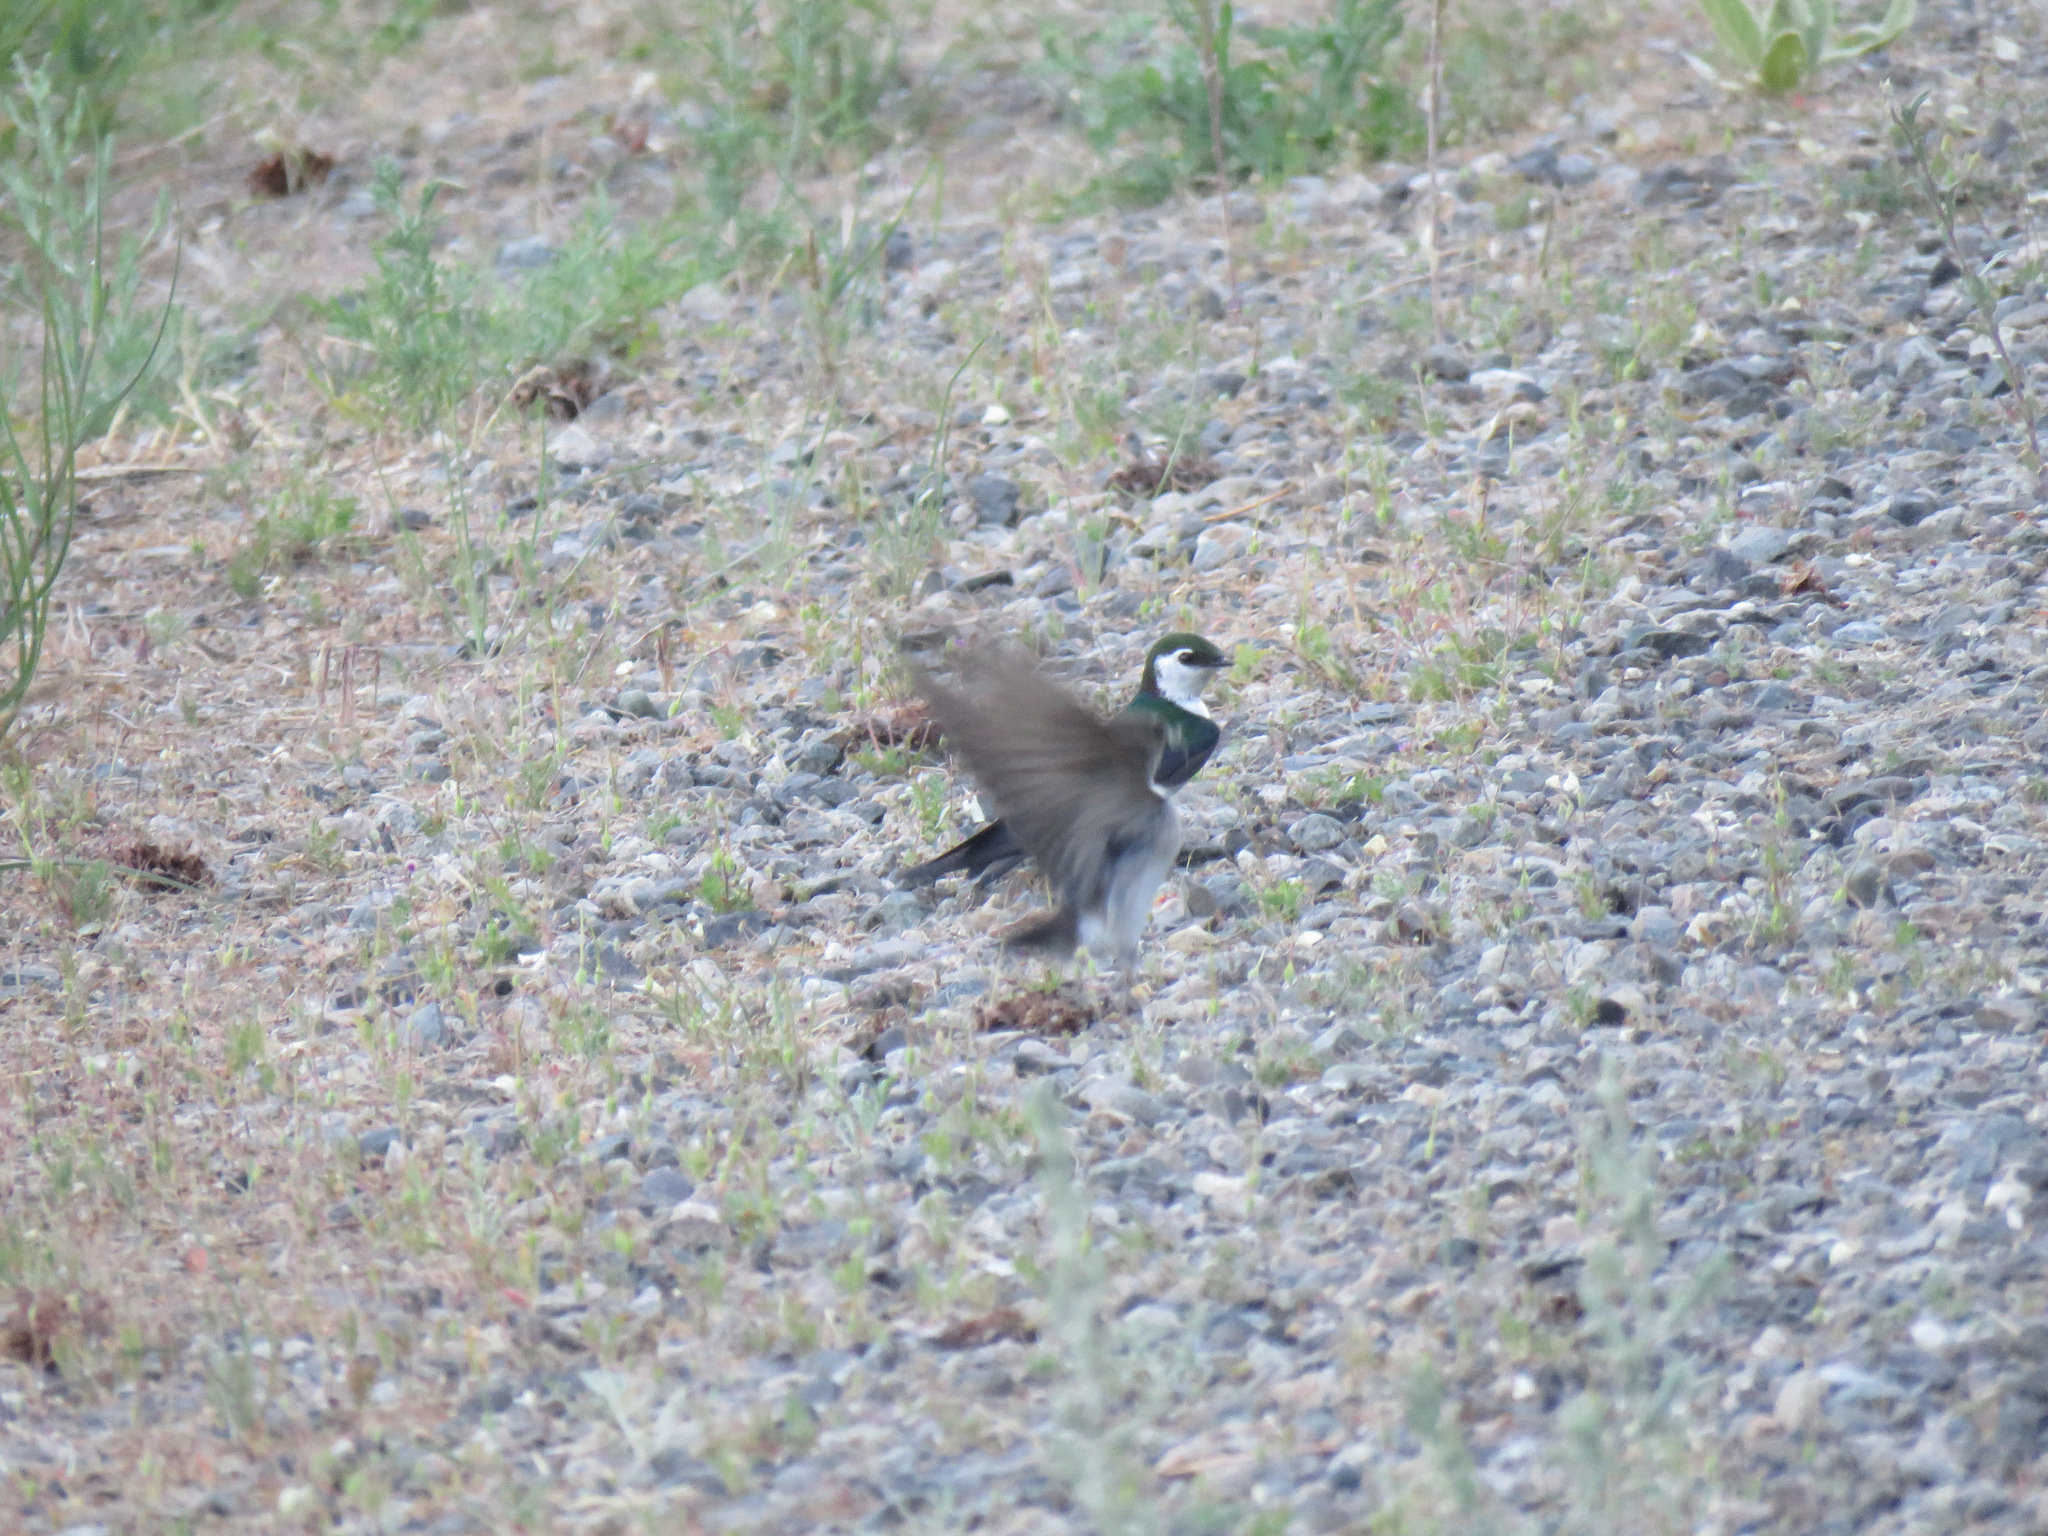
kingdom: Animalia
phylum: Chordata
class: Aves
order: Passeriformes
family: Hirundinidae
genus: Tachycineta
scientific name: Tachycineta thalassina
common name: Violet-green swallow
